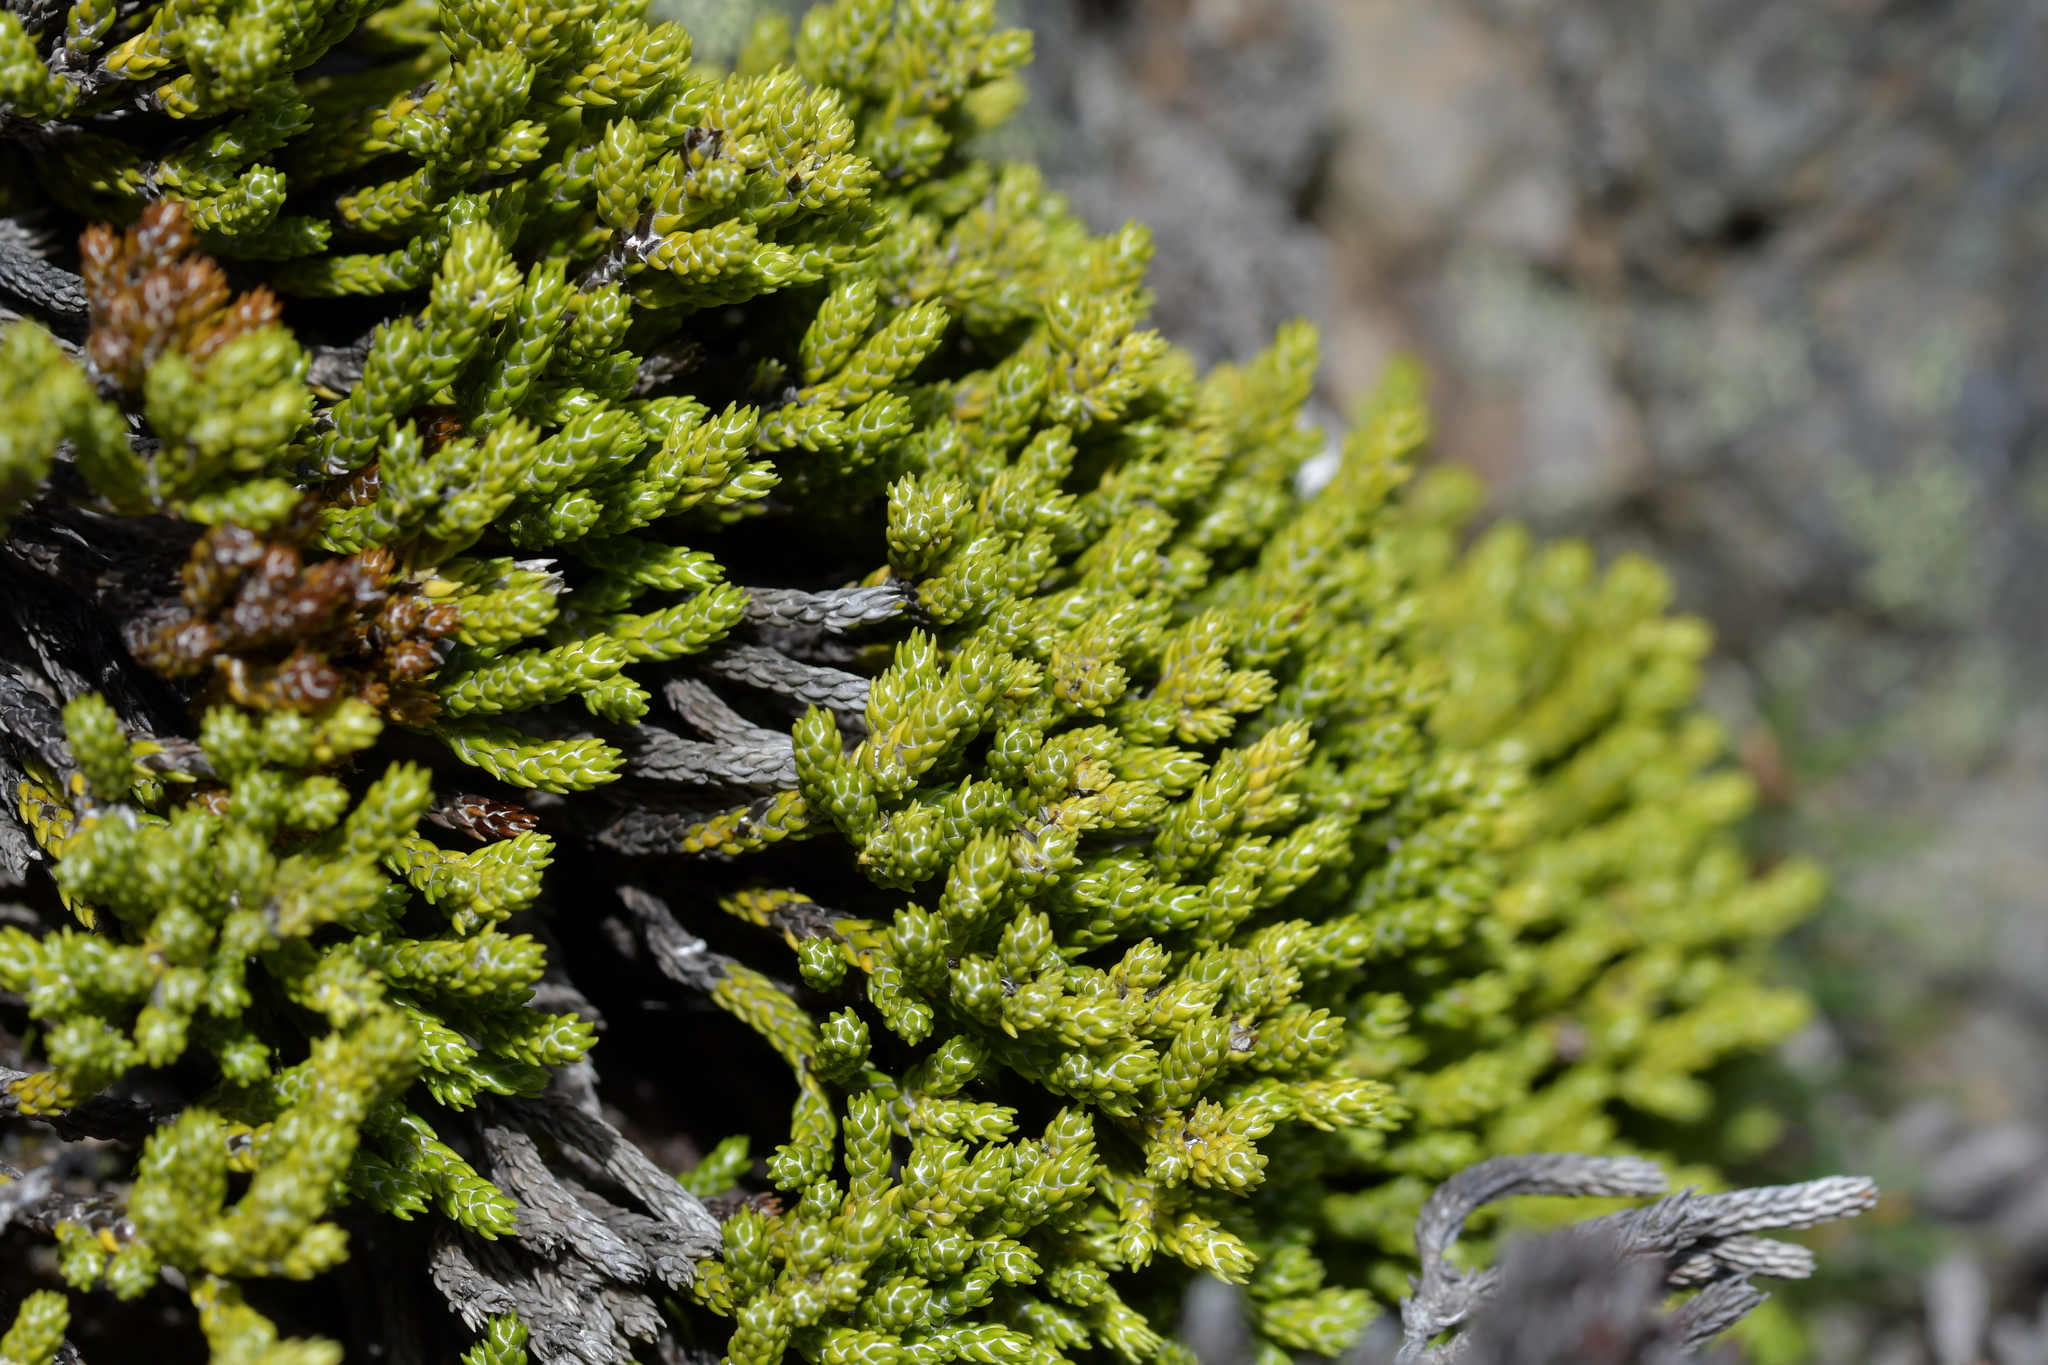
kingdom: Plantae
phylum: Tracheophyta
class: Magnoliopsida
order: Asterales
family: Asteraceae
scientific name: Asteraceae
